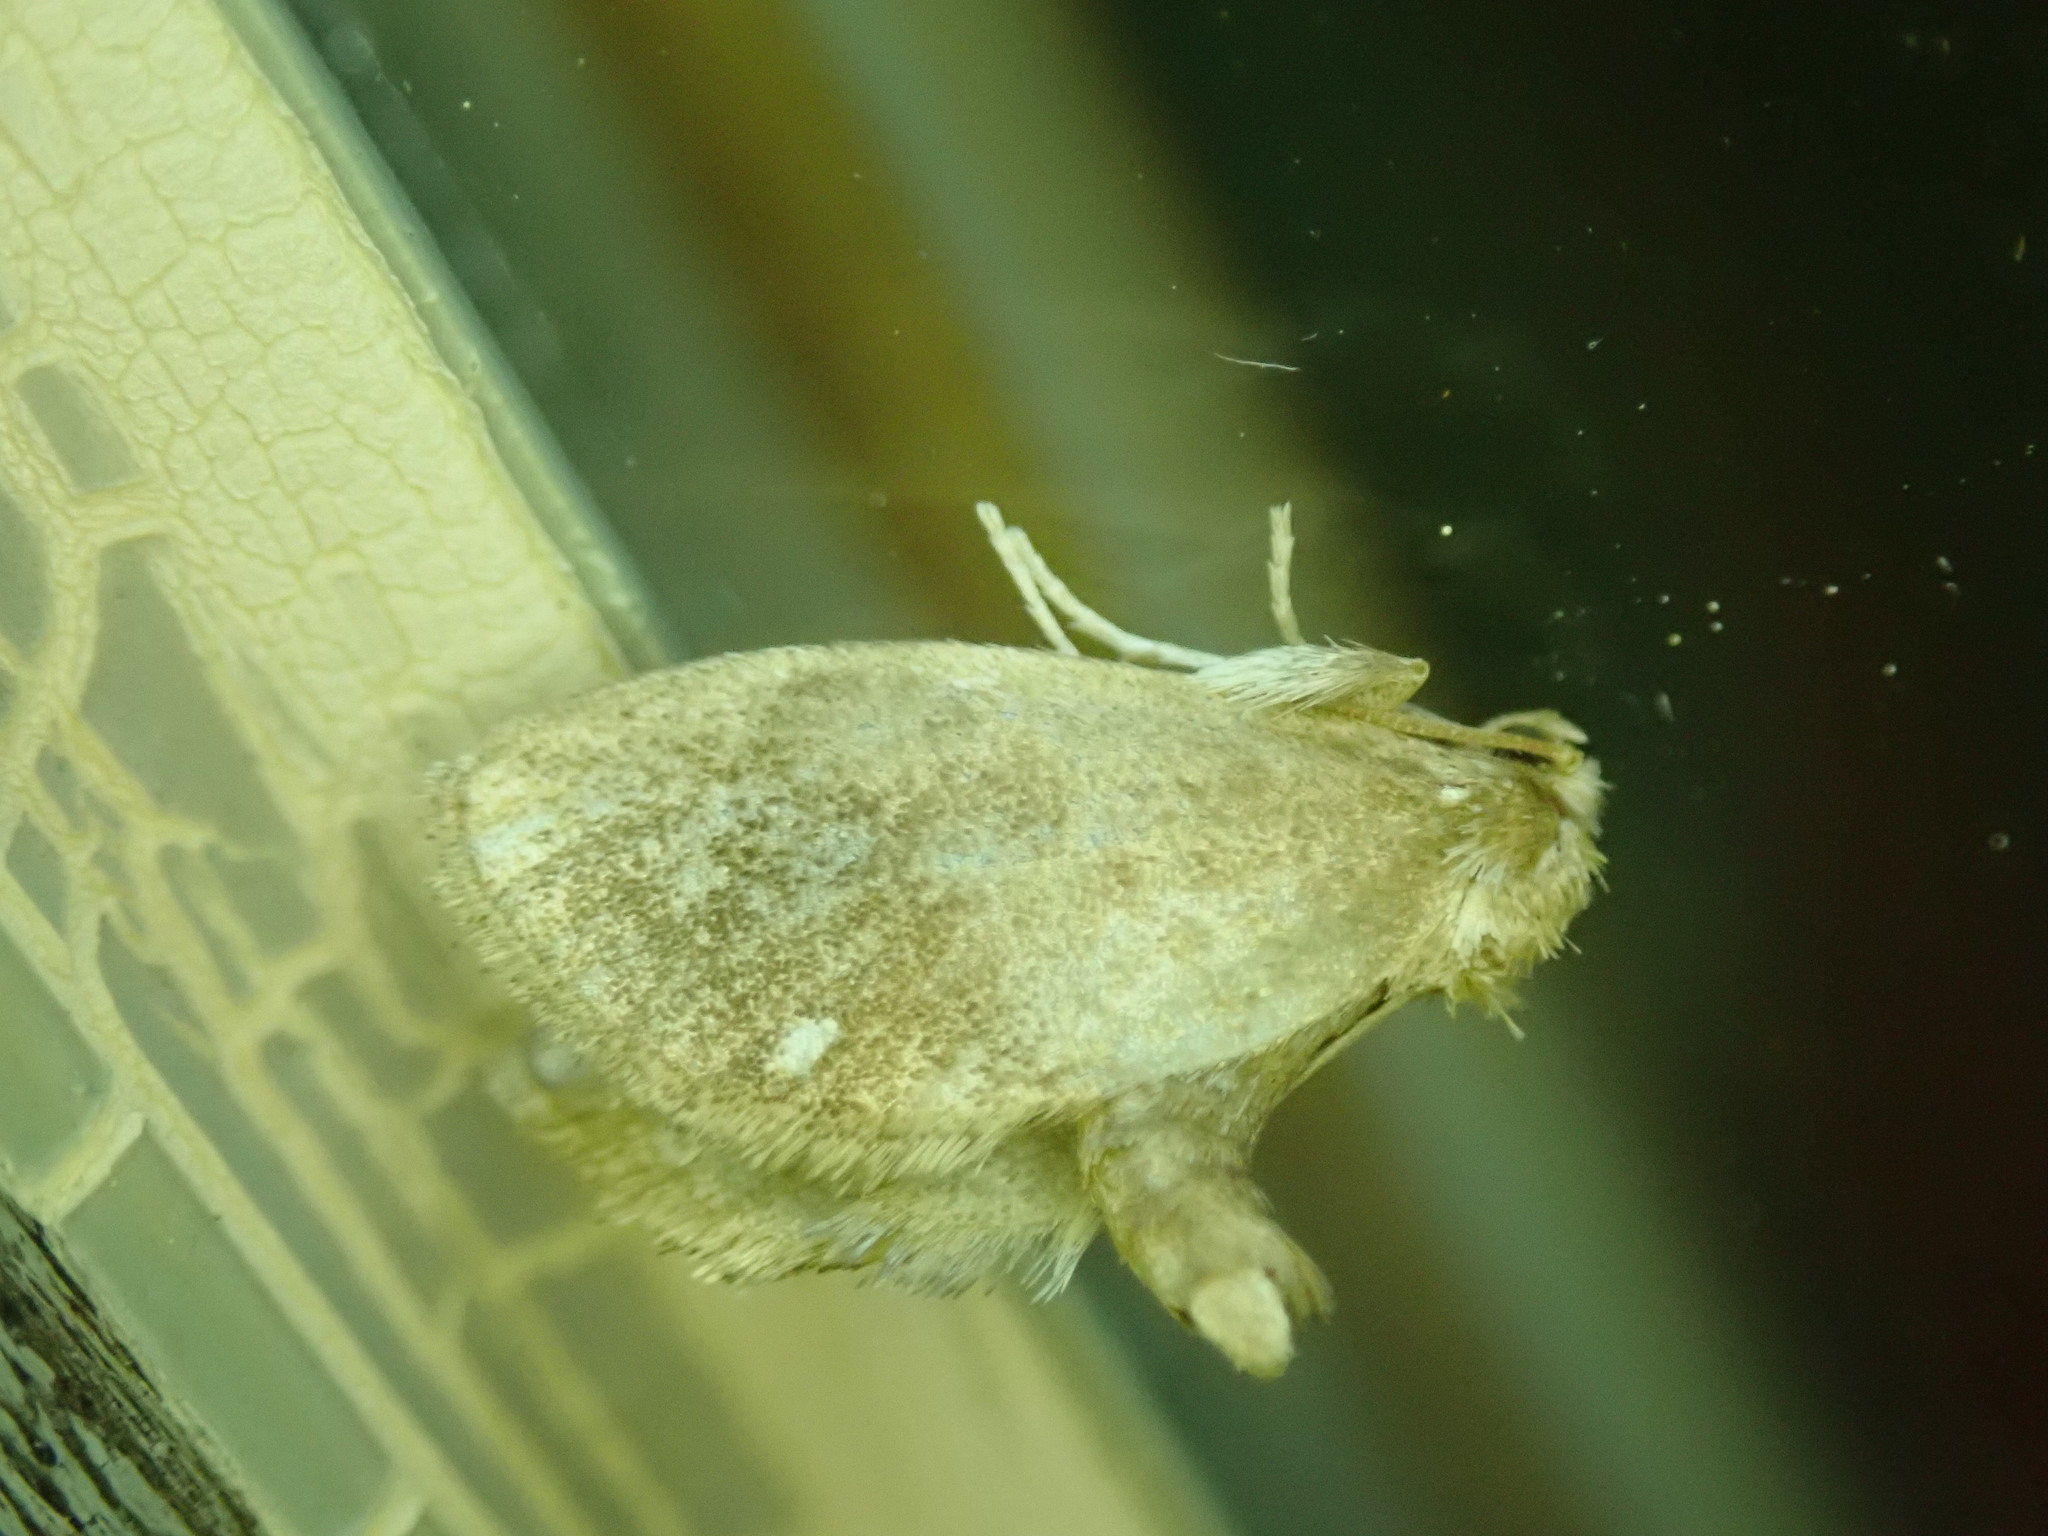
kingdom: Animalia
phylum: Arthropoda
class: Insecta
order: Lepidoptera
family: Limacodidae
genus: Packardia
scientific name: Packardia geminata
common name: Jeweled tailed slug moth
